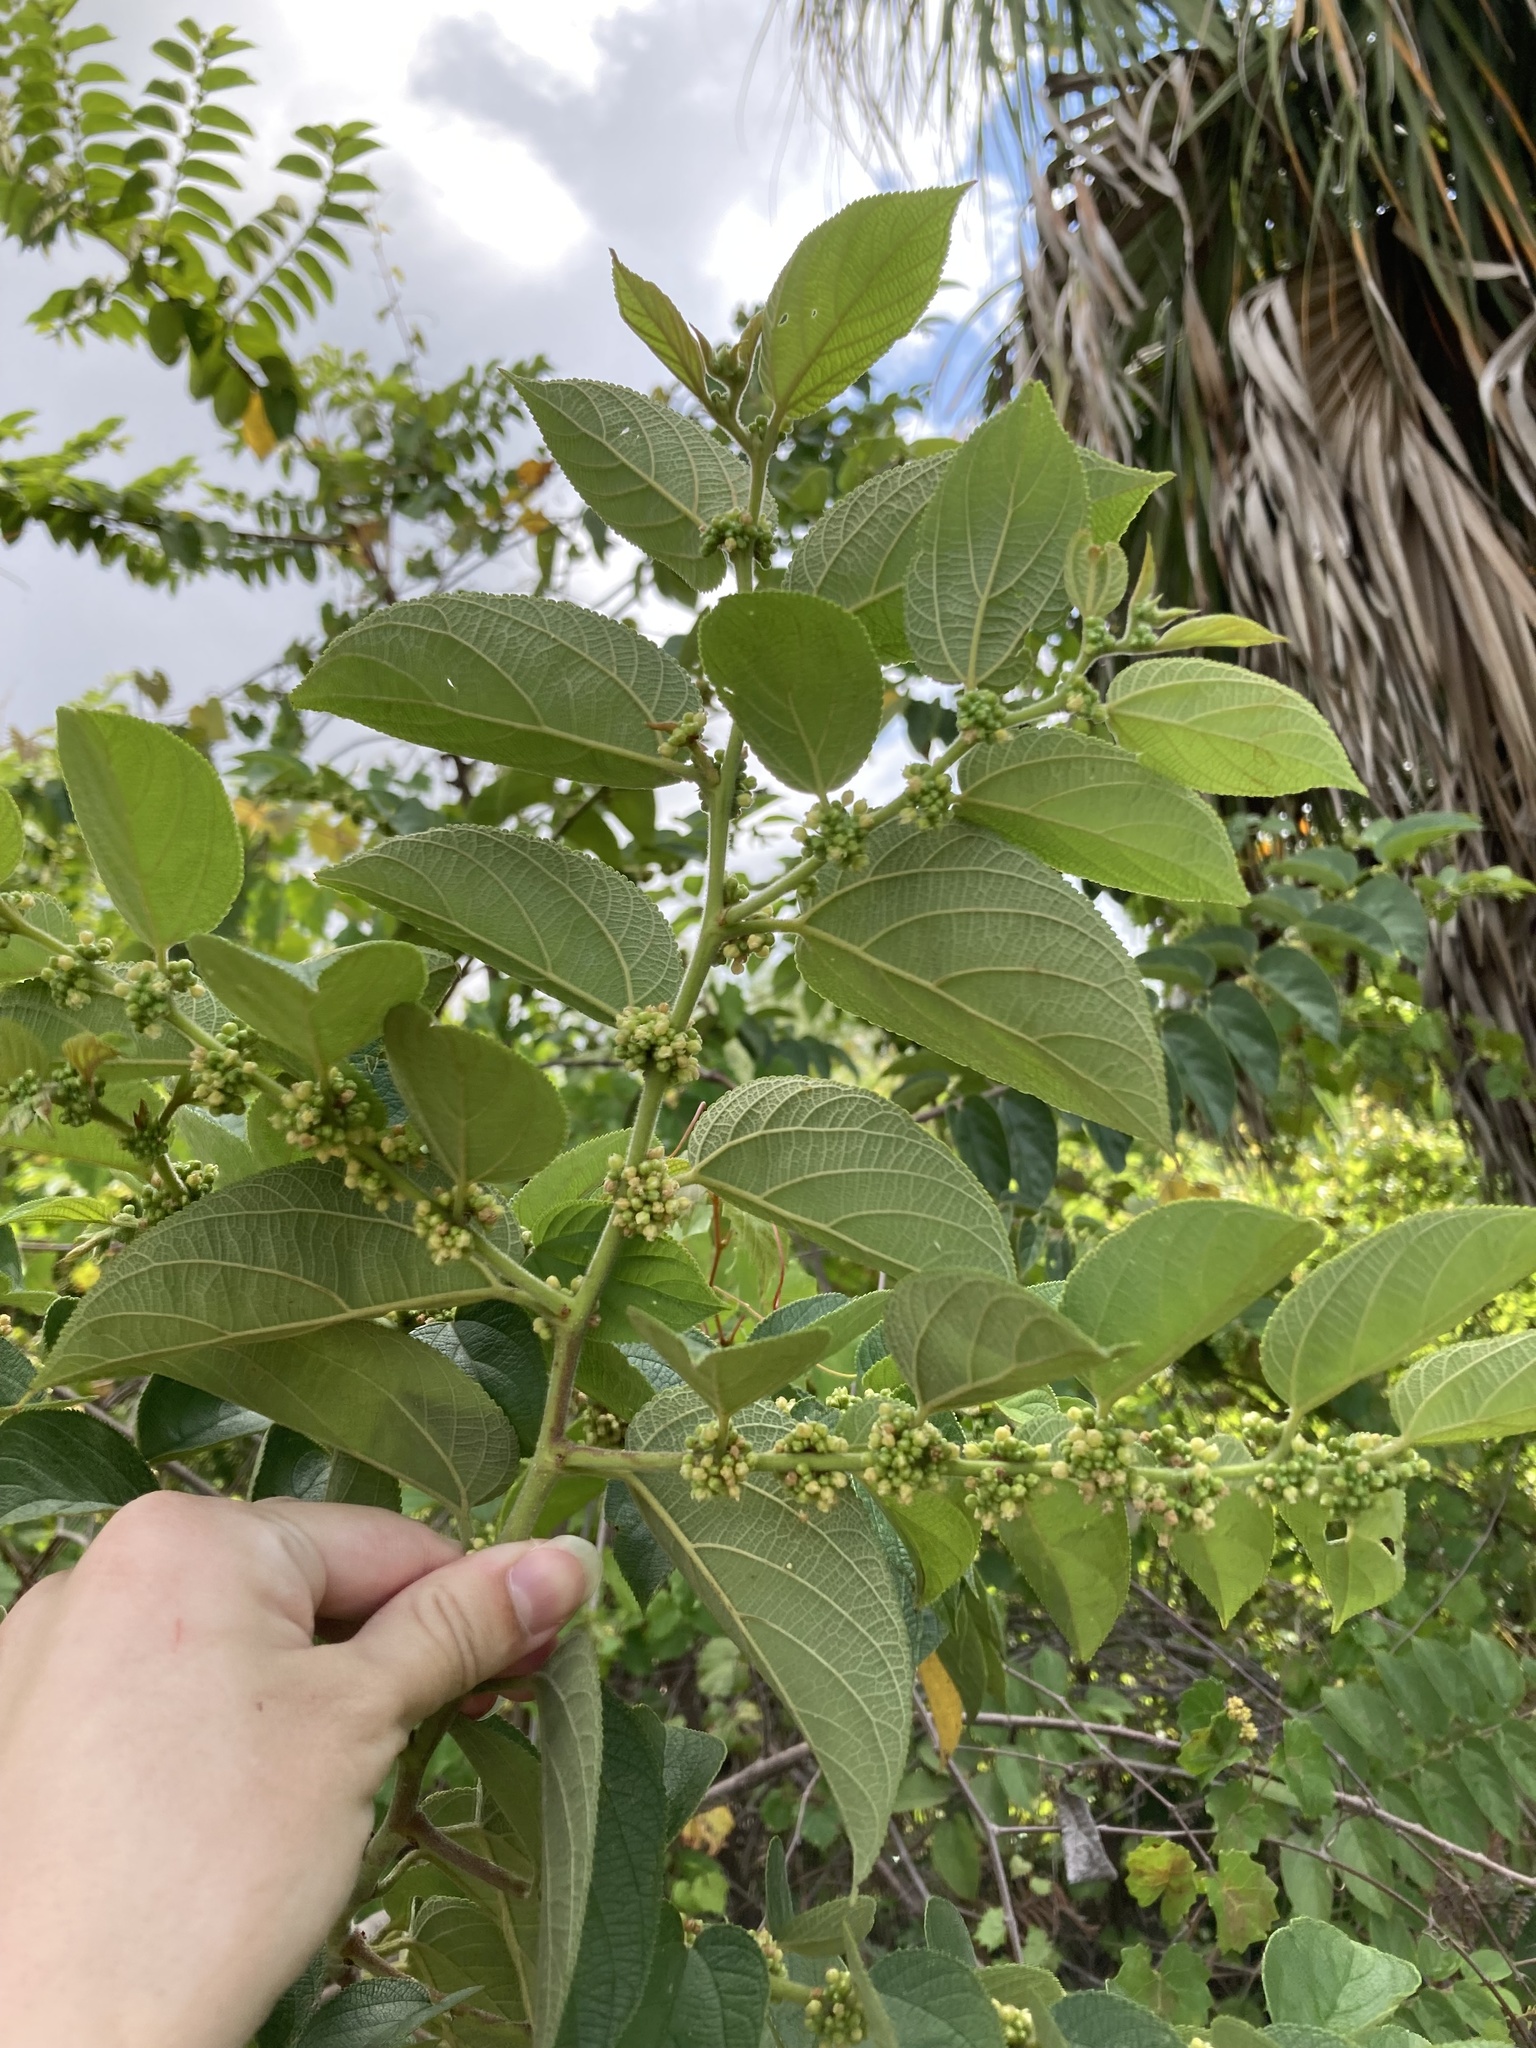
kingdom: Plantae
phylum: Tracheophyta
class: Magnoliopsida
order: Rosales
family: Cannabaceae
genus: Trema
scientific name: Trema micranthum
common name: Jamaican nettletree
